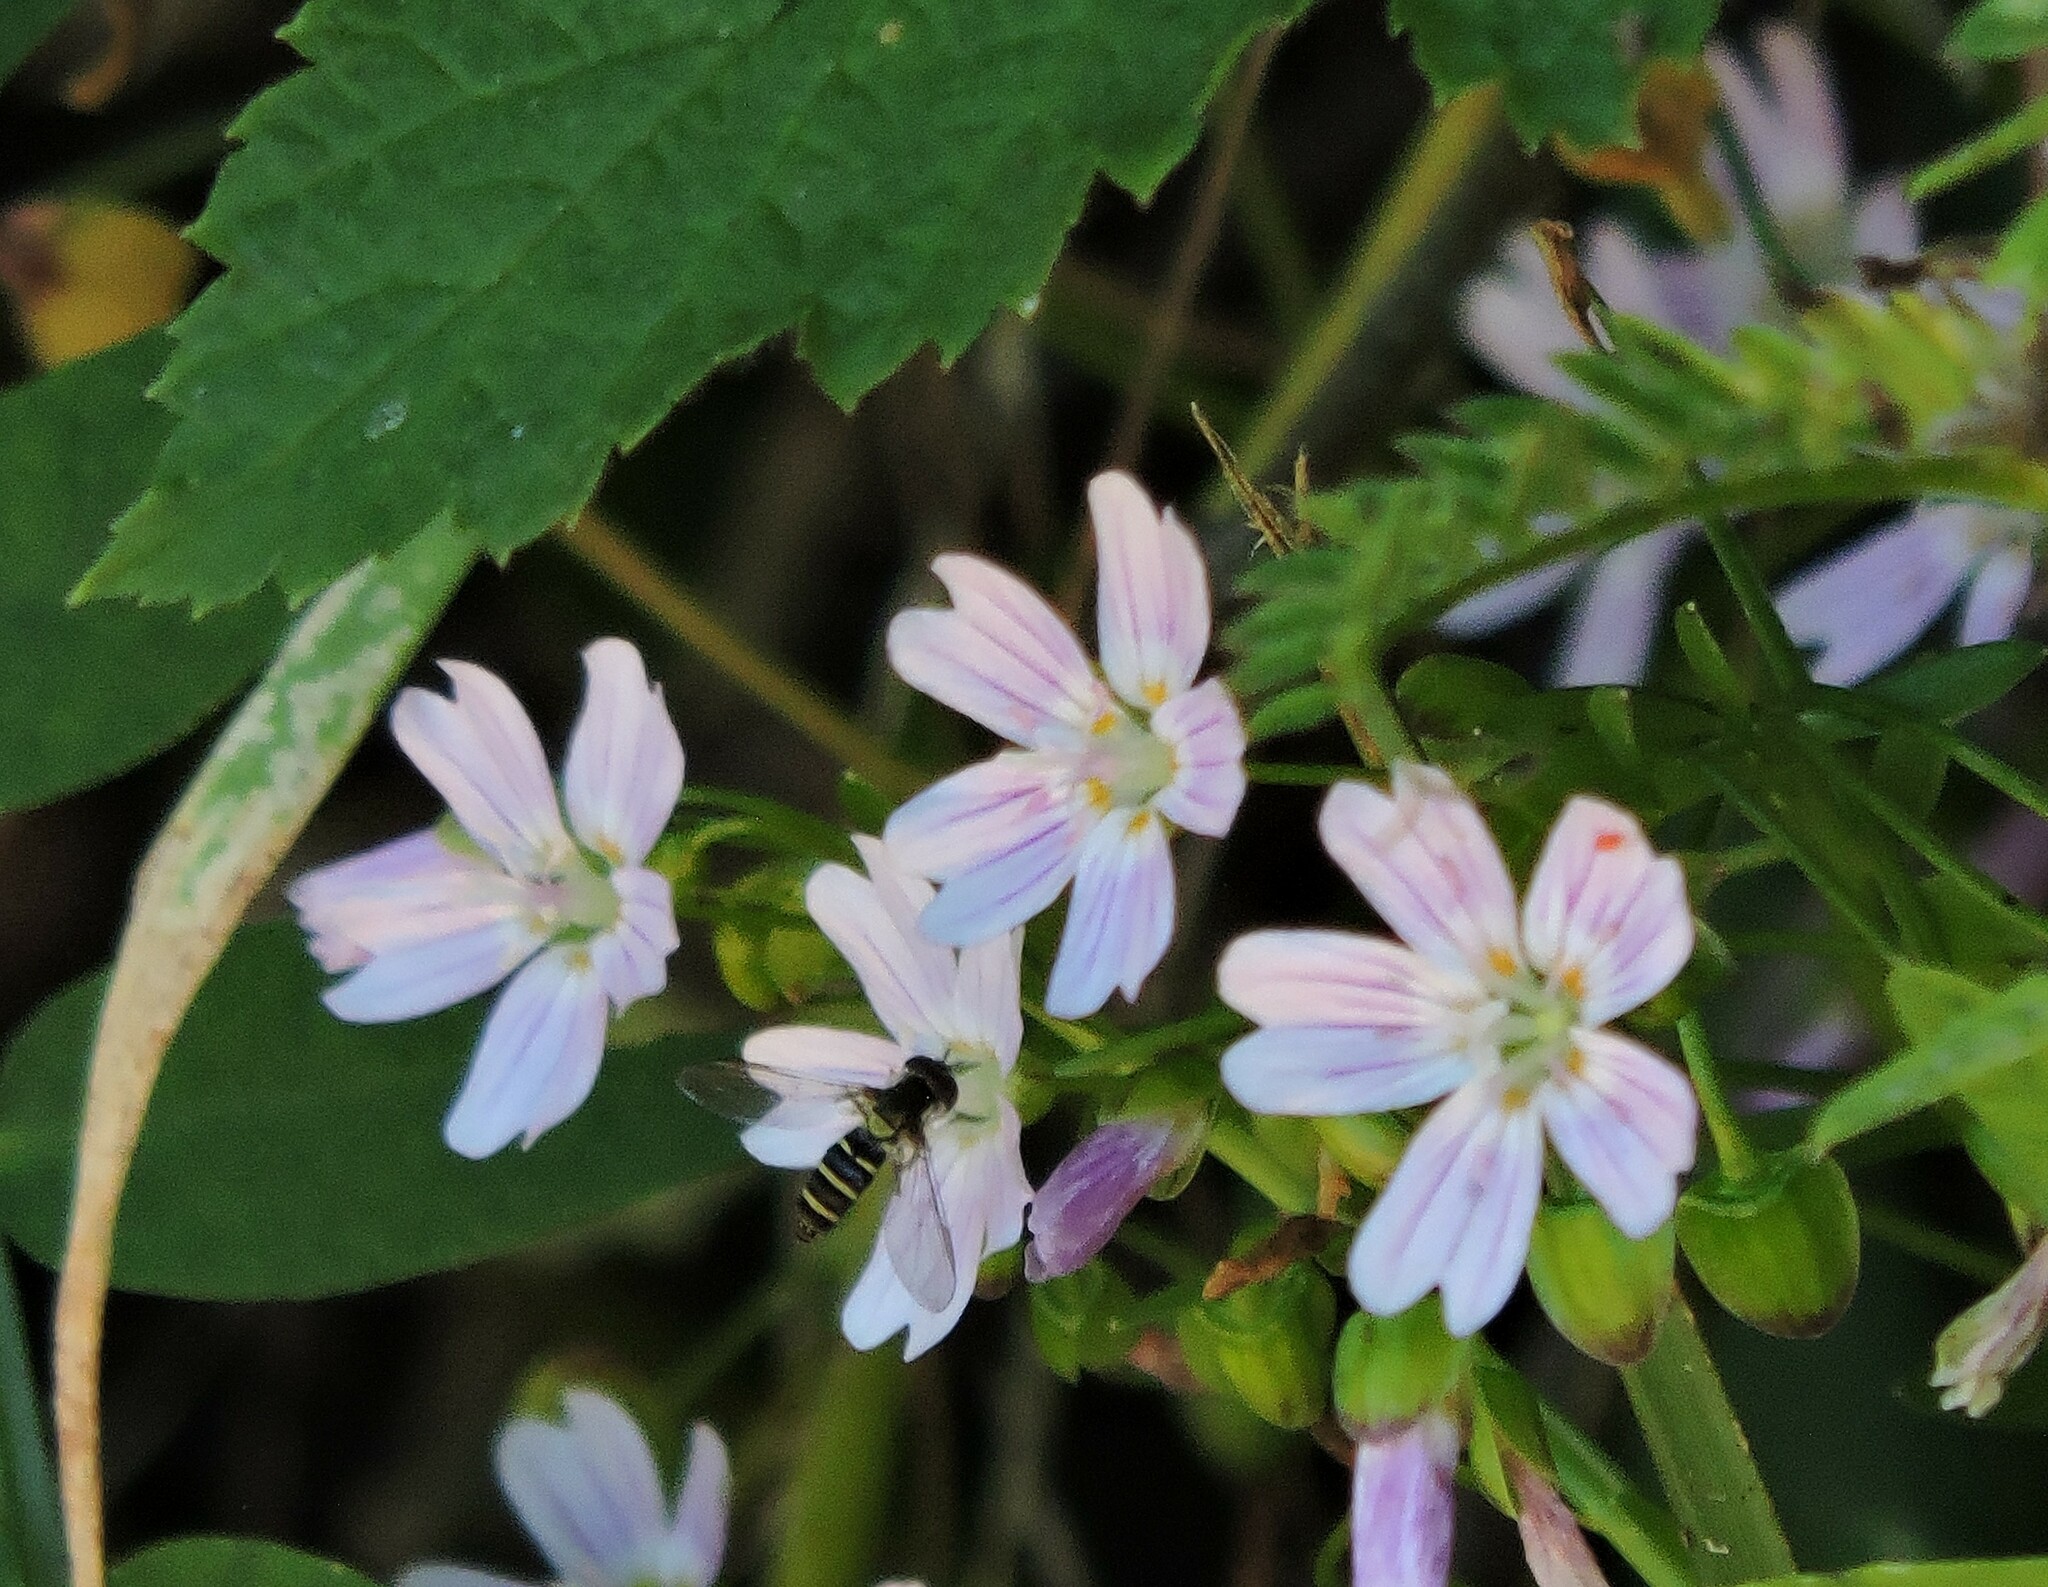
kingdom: Animalia
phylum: Arthropoda
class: Insecta
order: Diptera
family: Syrphidae
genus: Fazia
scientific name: Fazia micrura
